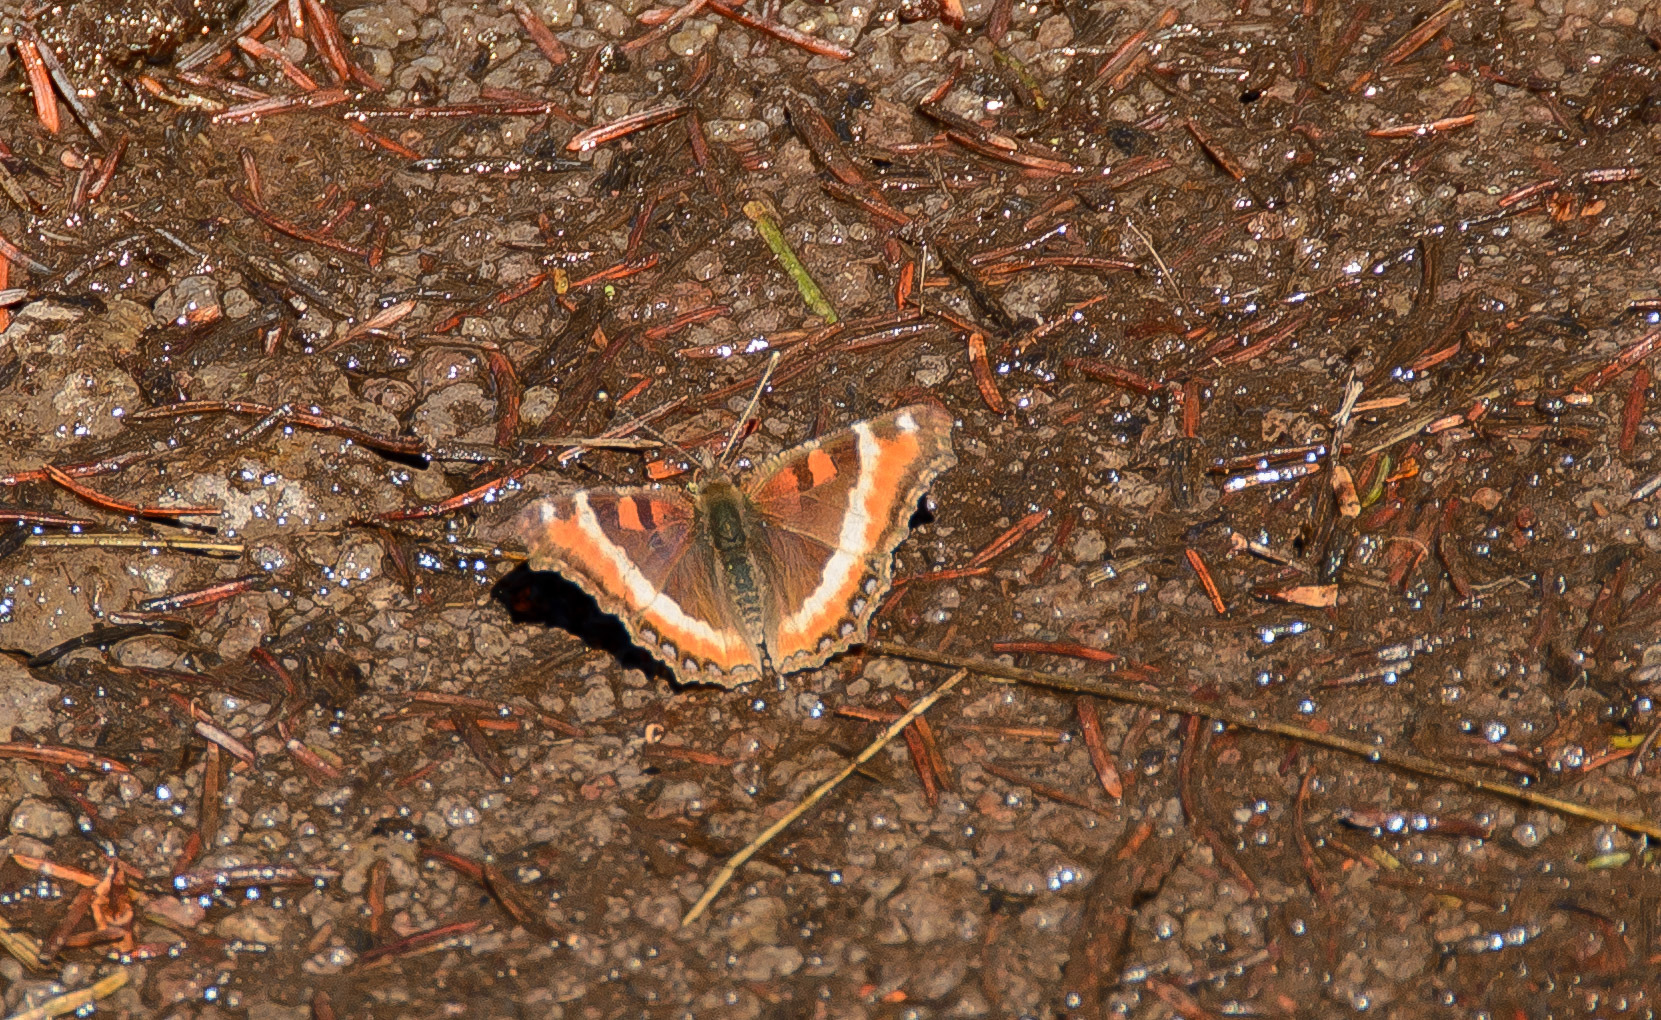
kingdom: Animalia
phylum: Arthropoda
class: Insecta
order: Lepidoptera
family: Nymphalidae
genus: Aglais
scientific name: Aglais milberti
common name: Milbert's tortoiseshell
